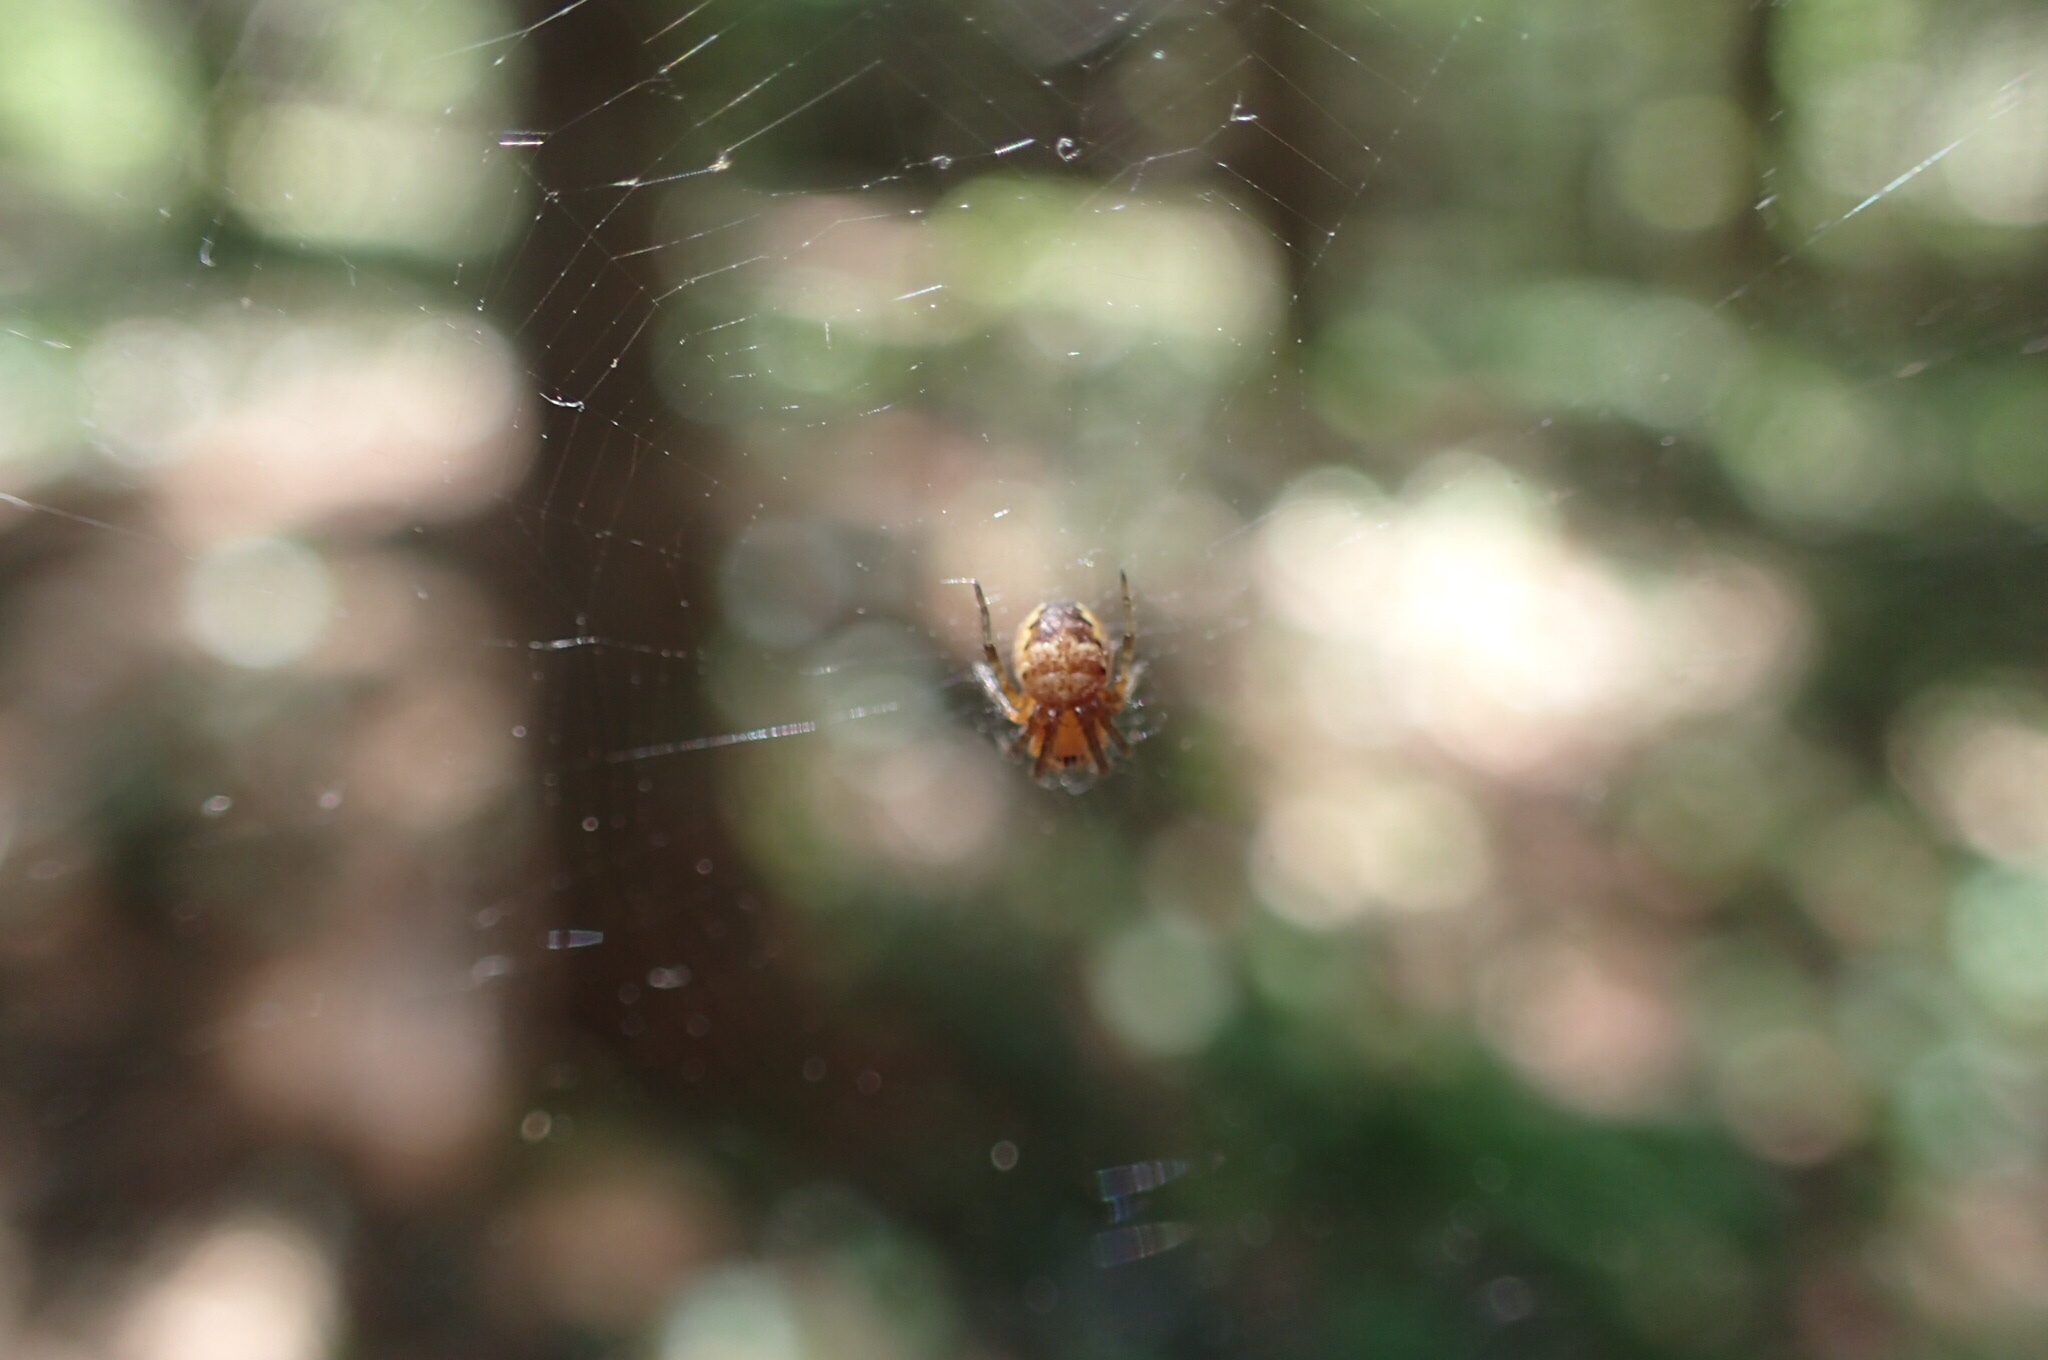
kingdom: Animalia
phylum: Arthropoda
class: Arachnida
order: Araneae
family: Araneidae
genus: Araneus
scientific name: Araneus diadematus
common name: Cross orbweaver
